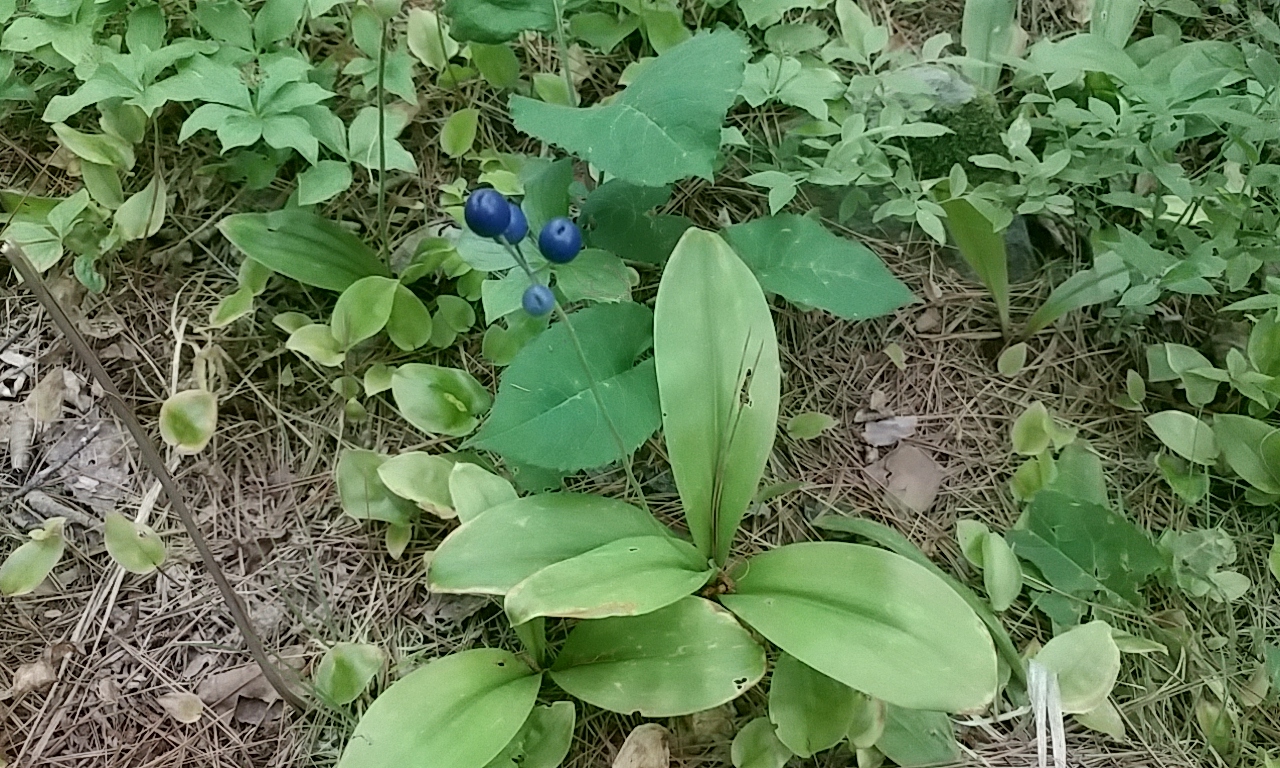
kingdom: Plantae
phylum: Tracheophyta
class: Liliopsida
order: Liliales
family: Liliaceae
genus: Clintonia
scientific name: Clintonia borealis
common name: Yellow clintonia
